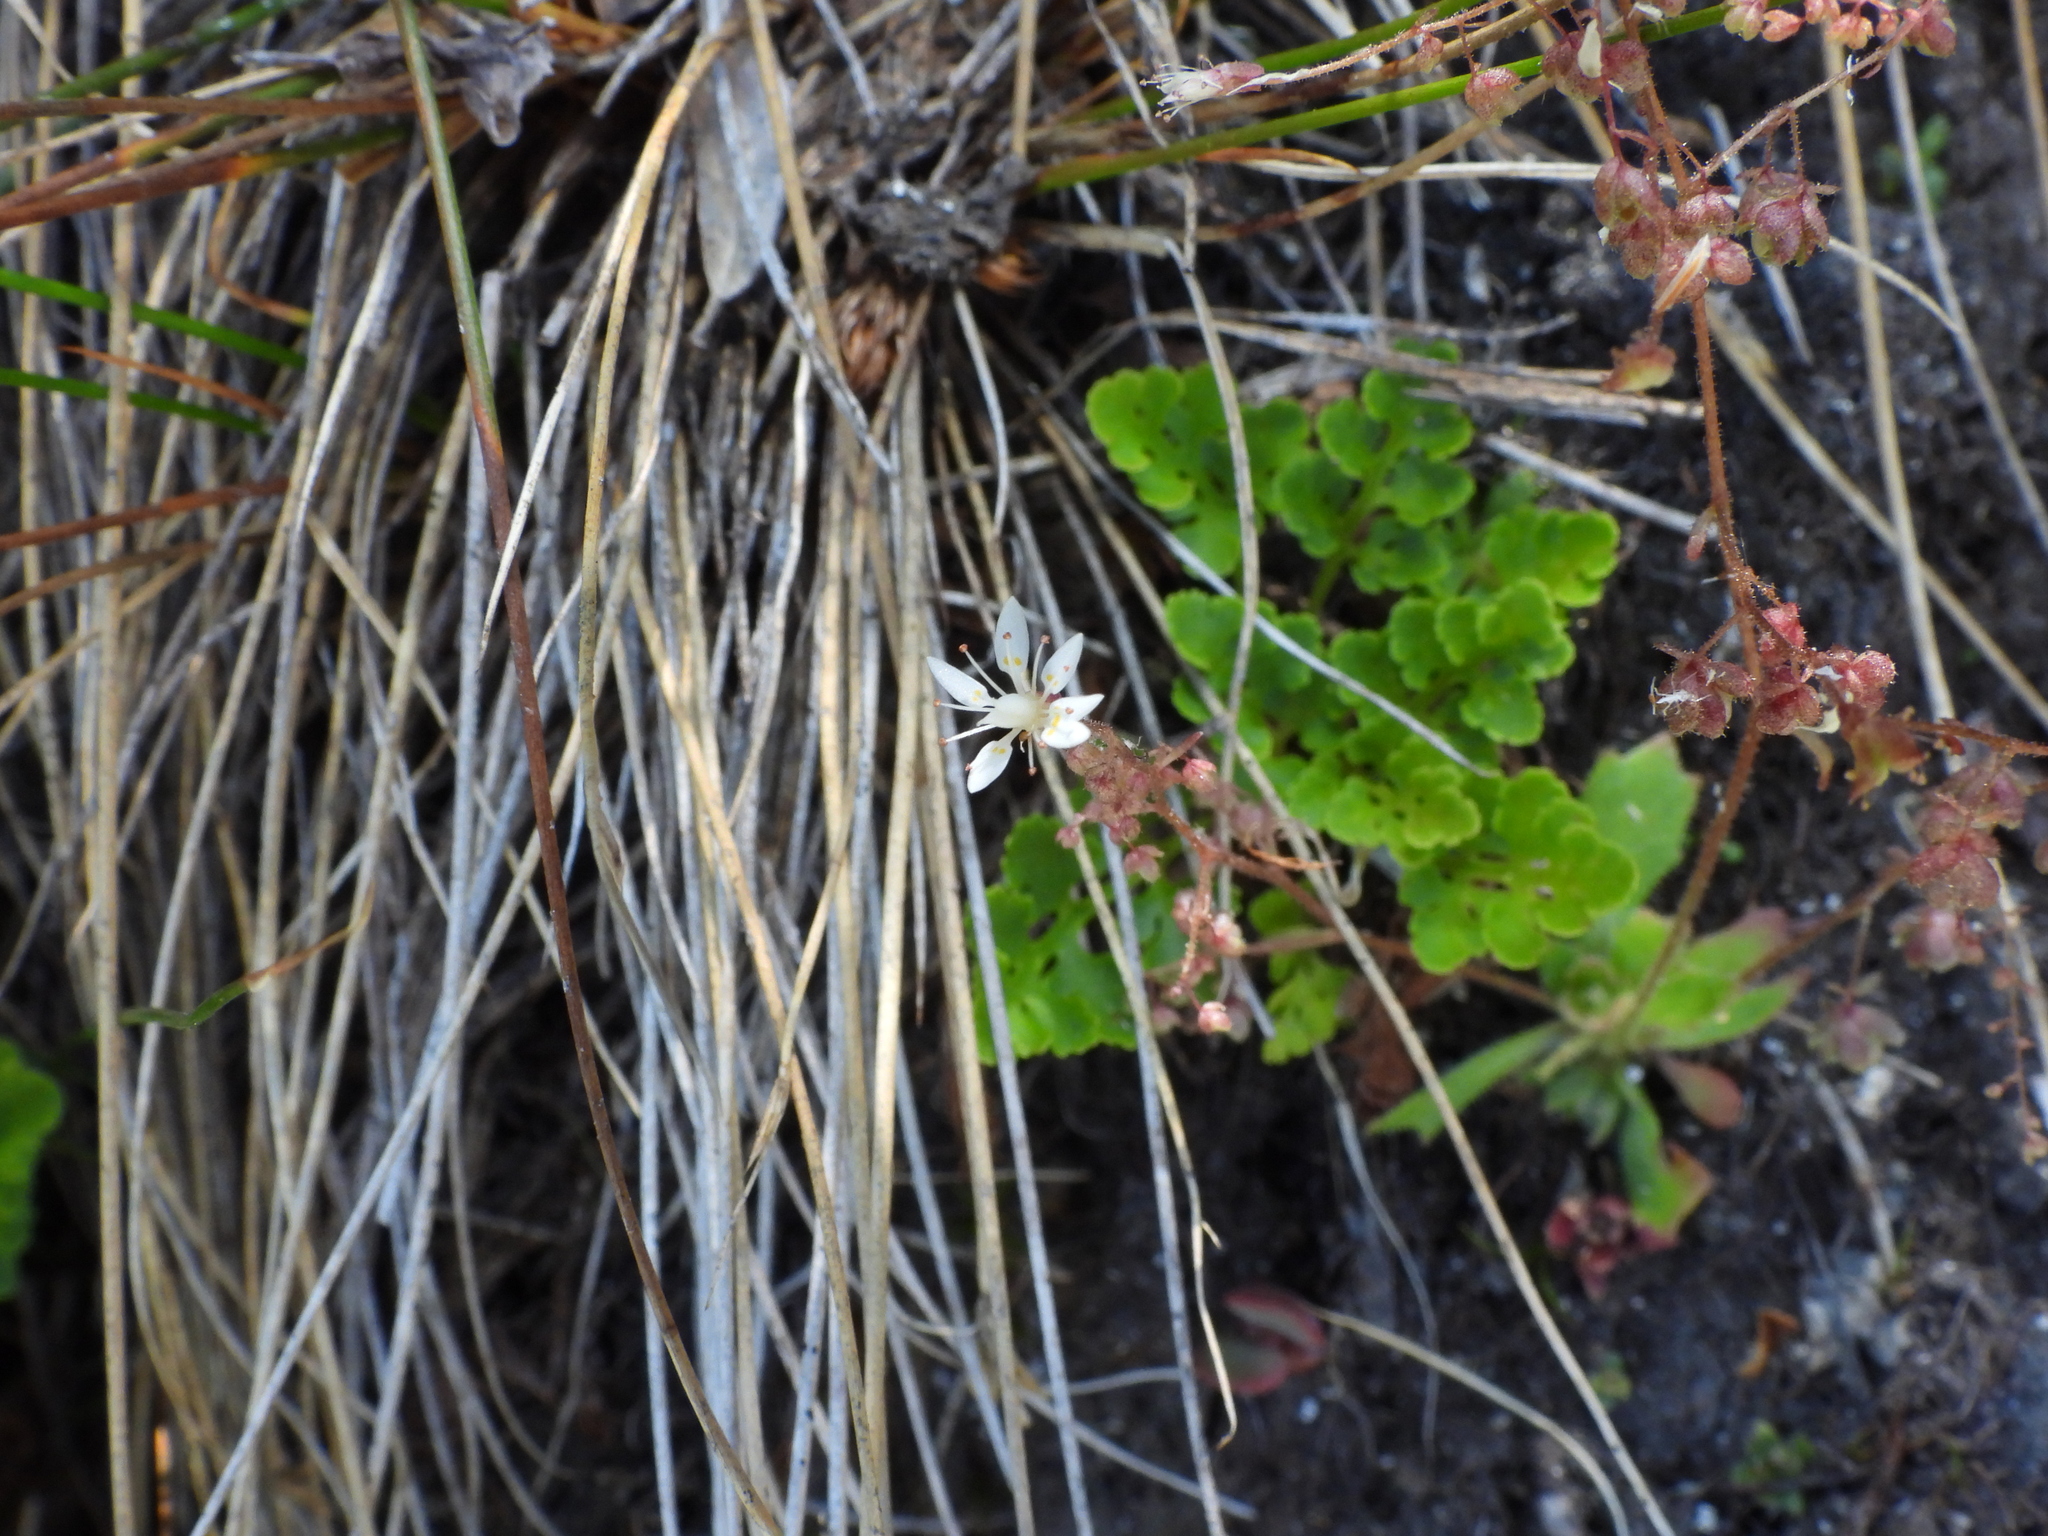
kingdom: Plantae
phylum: Tracheophyta
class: Magnoliopsida
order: Saxifragales
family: Saxifragaceae
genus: Micranthes
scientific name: Micranthes ferruginea
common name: Rusty saxifrage
